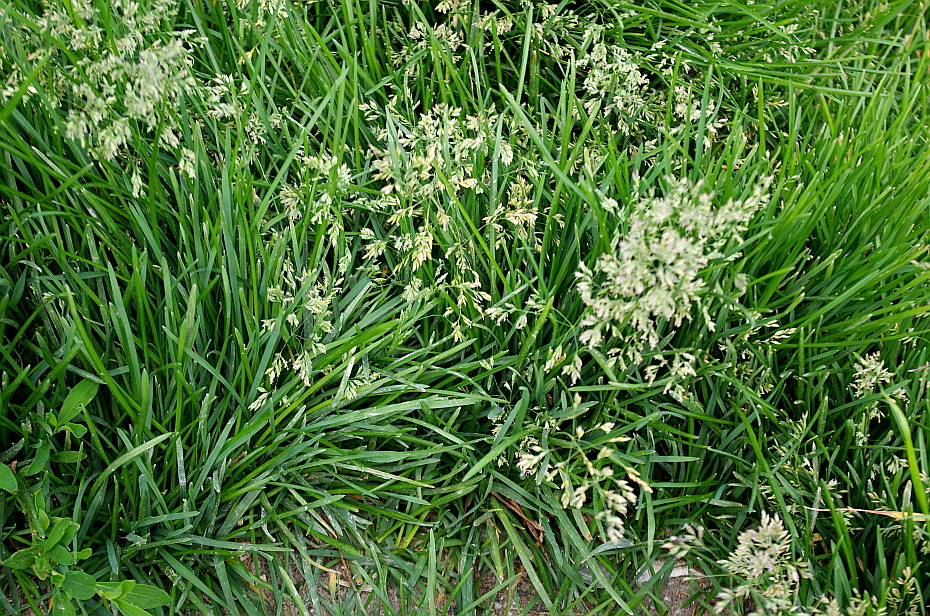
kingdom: Plantae
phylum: Tracheophyta
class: Liliopsida
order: Poales
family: Poaceae
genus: Poa
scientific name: Poa pratensis
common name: Kentucky bluegrass
